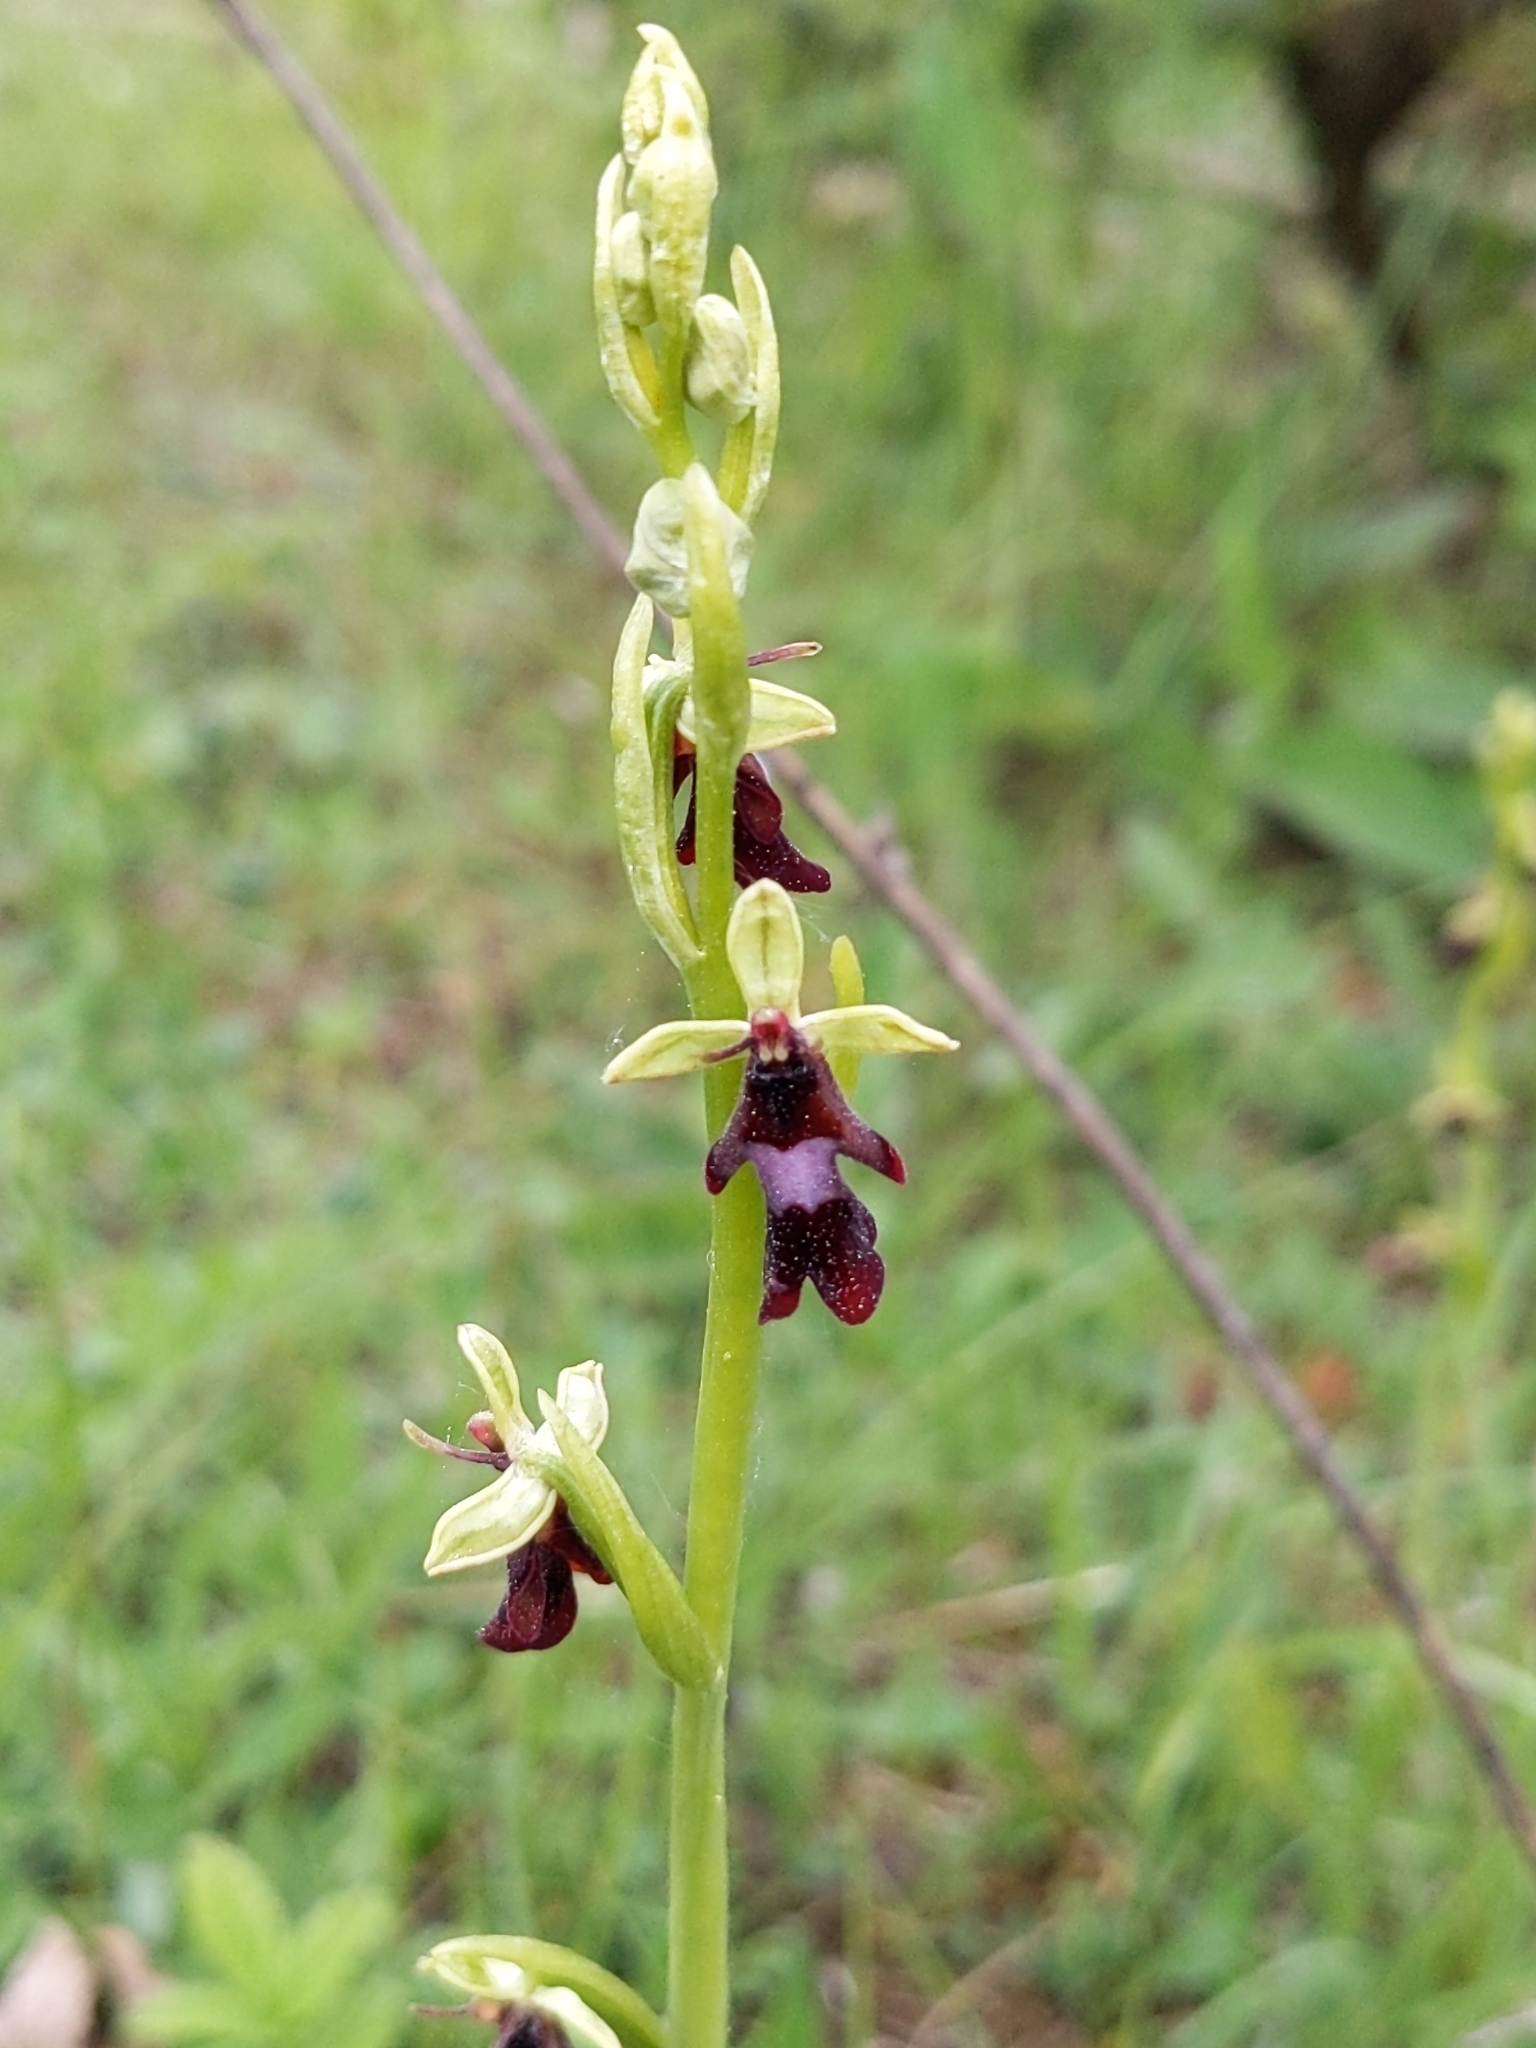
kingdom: Plantae
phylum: Tracheophyta
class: Liliopsida
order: Asparagales
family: Orchidaceae
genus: Ophrys
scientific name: Ophrys insectifera
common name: Fly orchid
